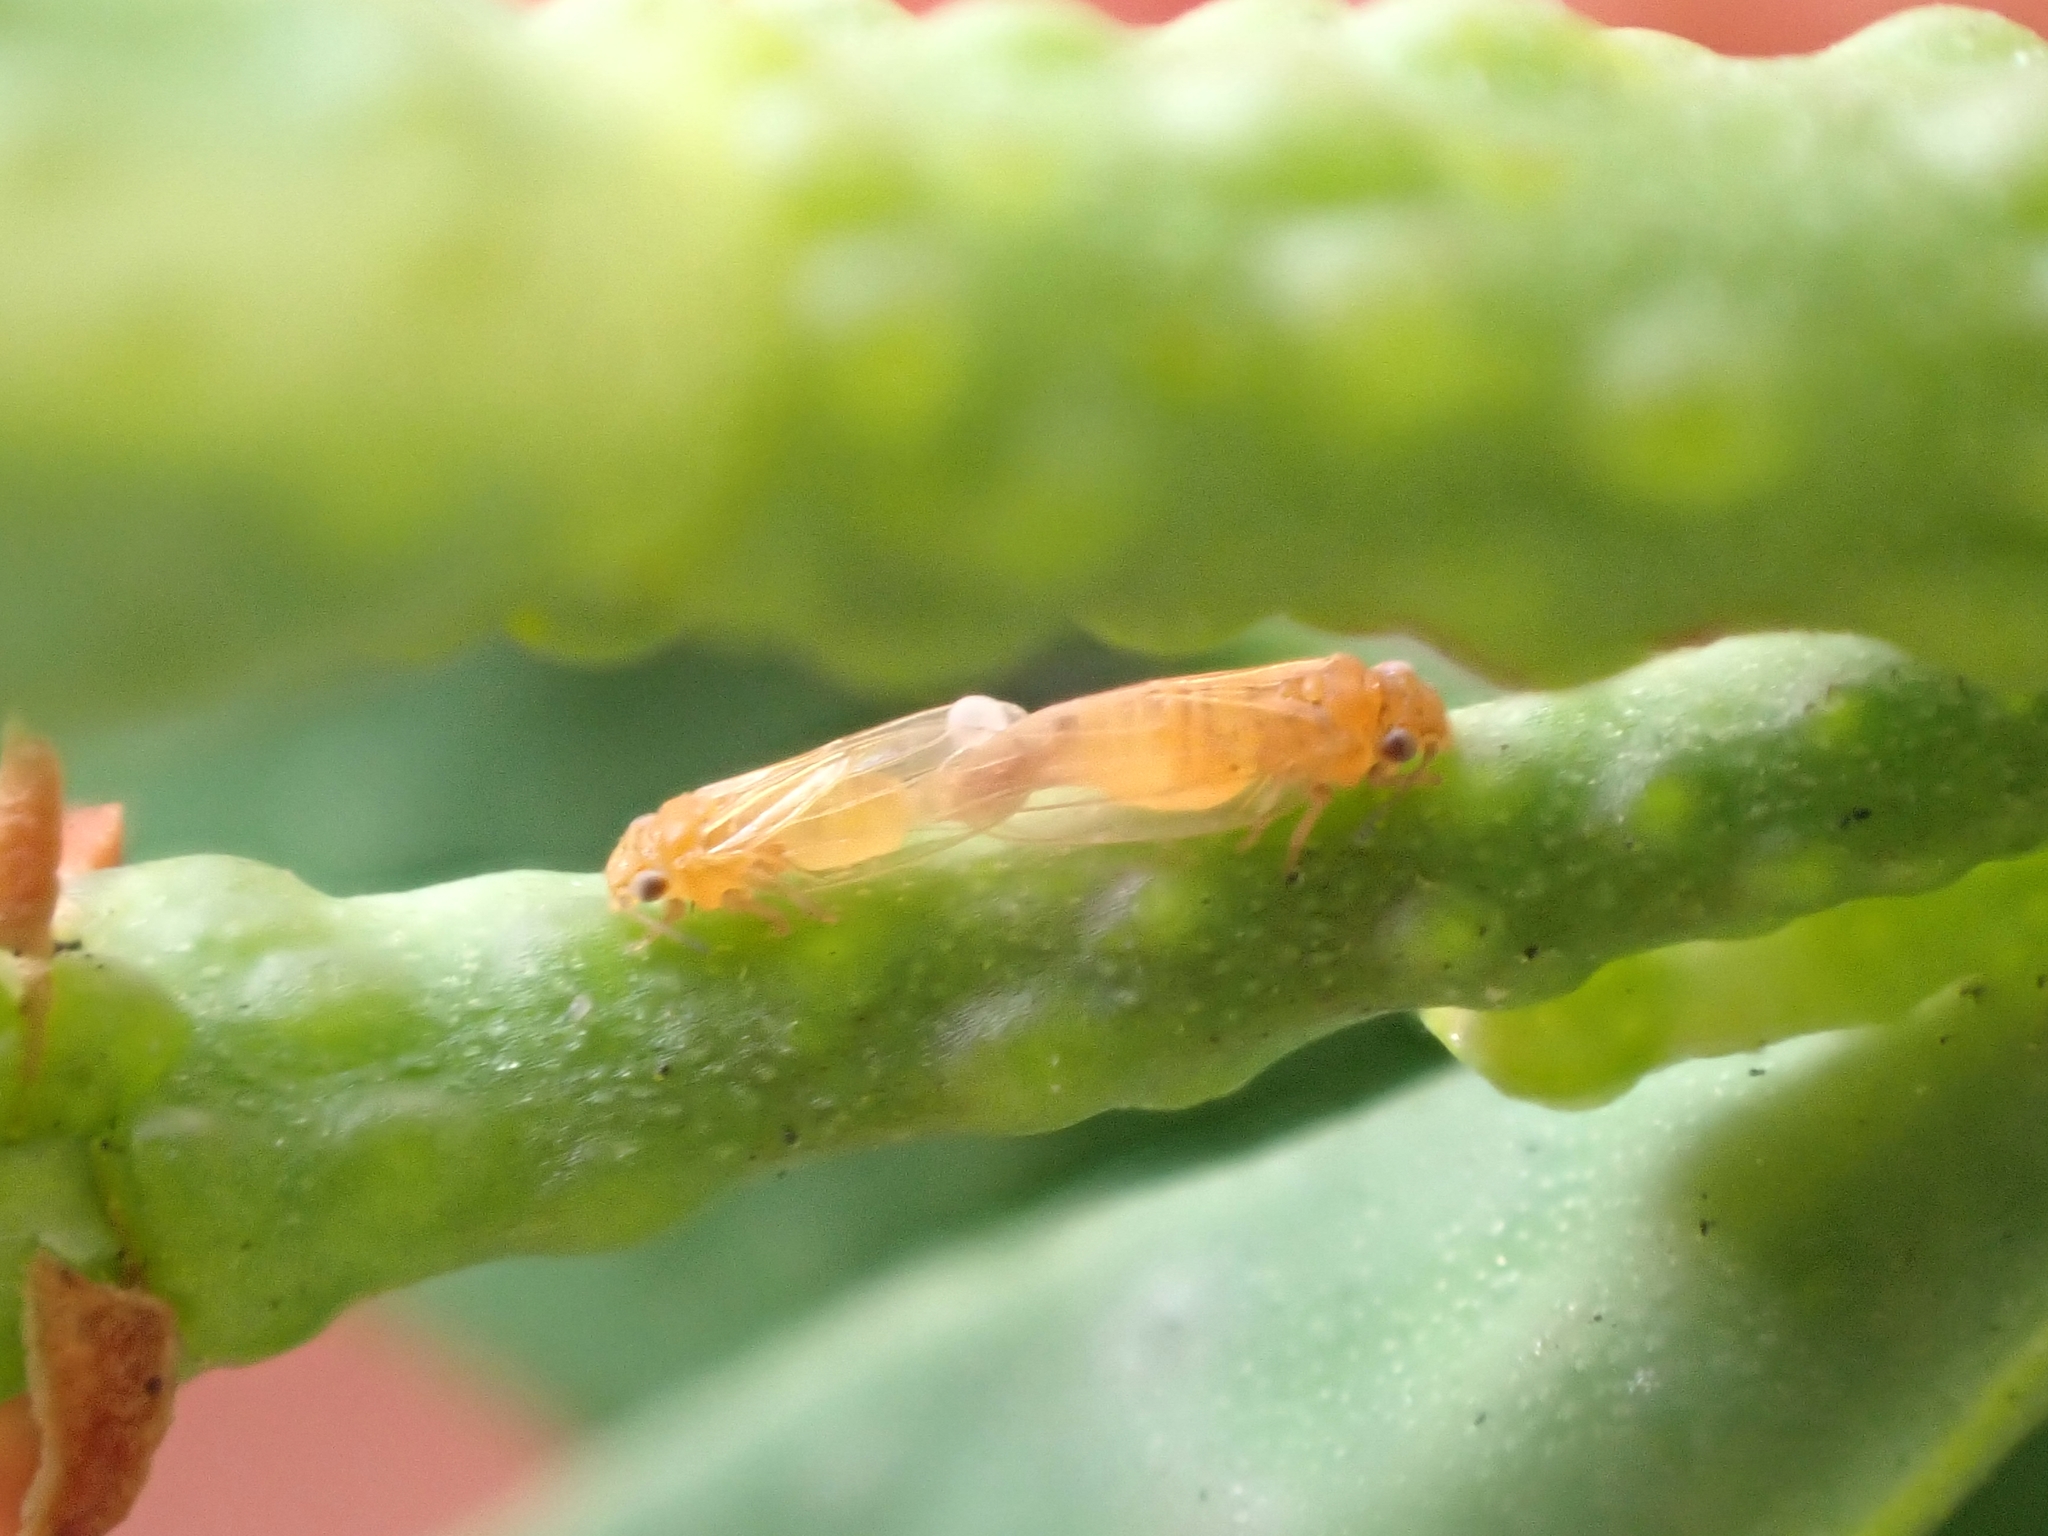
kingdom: Animalia
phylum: Arthropoda
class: Insecta
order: Hemiptera
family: Aphalaridae
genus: Ctenarytaina
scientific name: Ctenarytaina thysanura
